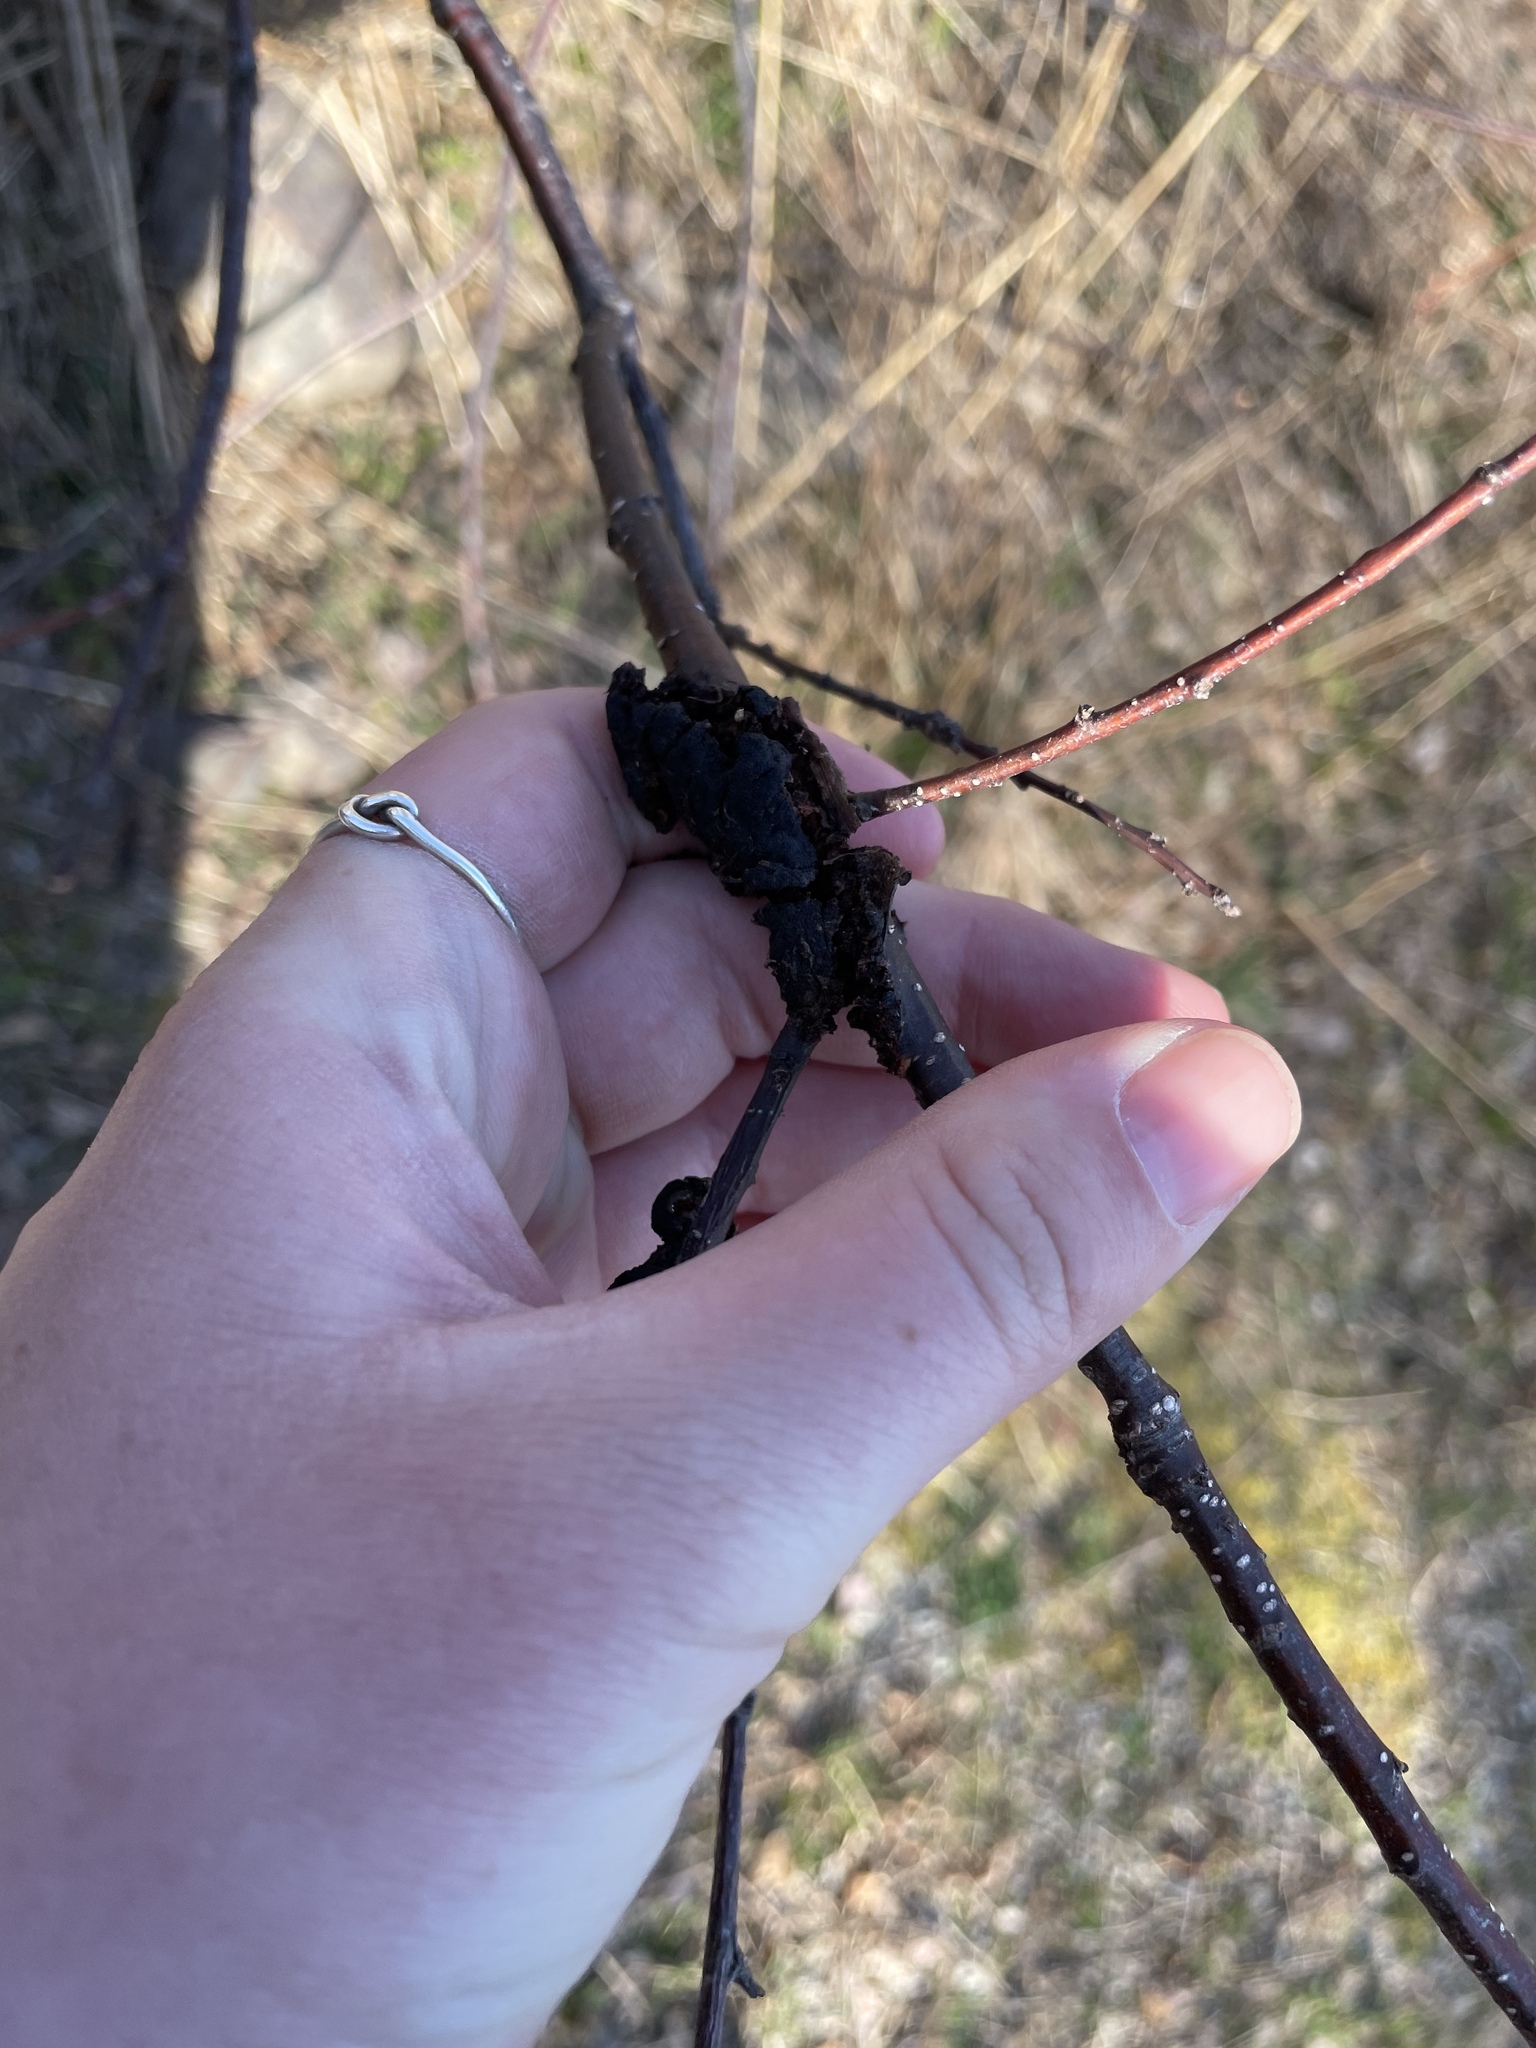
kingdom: Fungi
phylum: Ascomycota
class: Dothideomycetes
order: Venturiales
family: Venturiaceae
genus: Apiosporina
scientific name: Apiosporina morbosa
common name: Black knot
